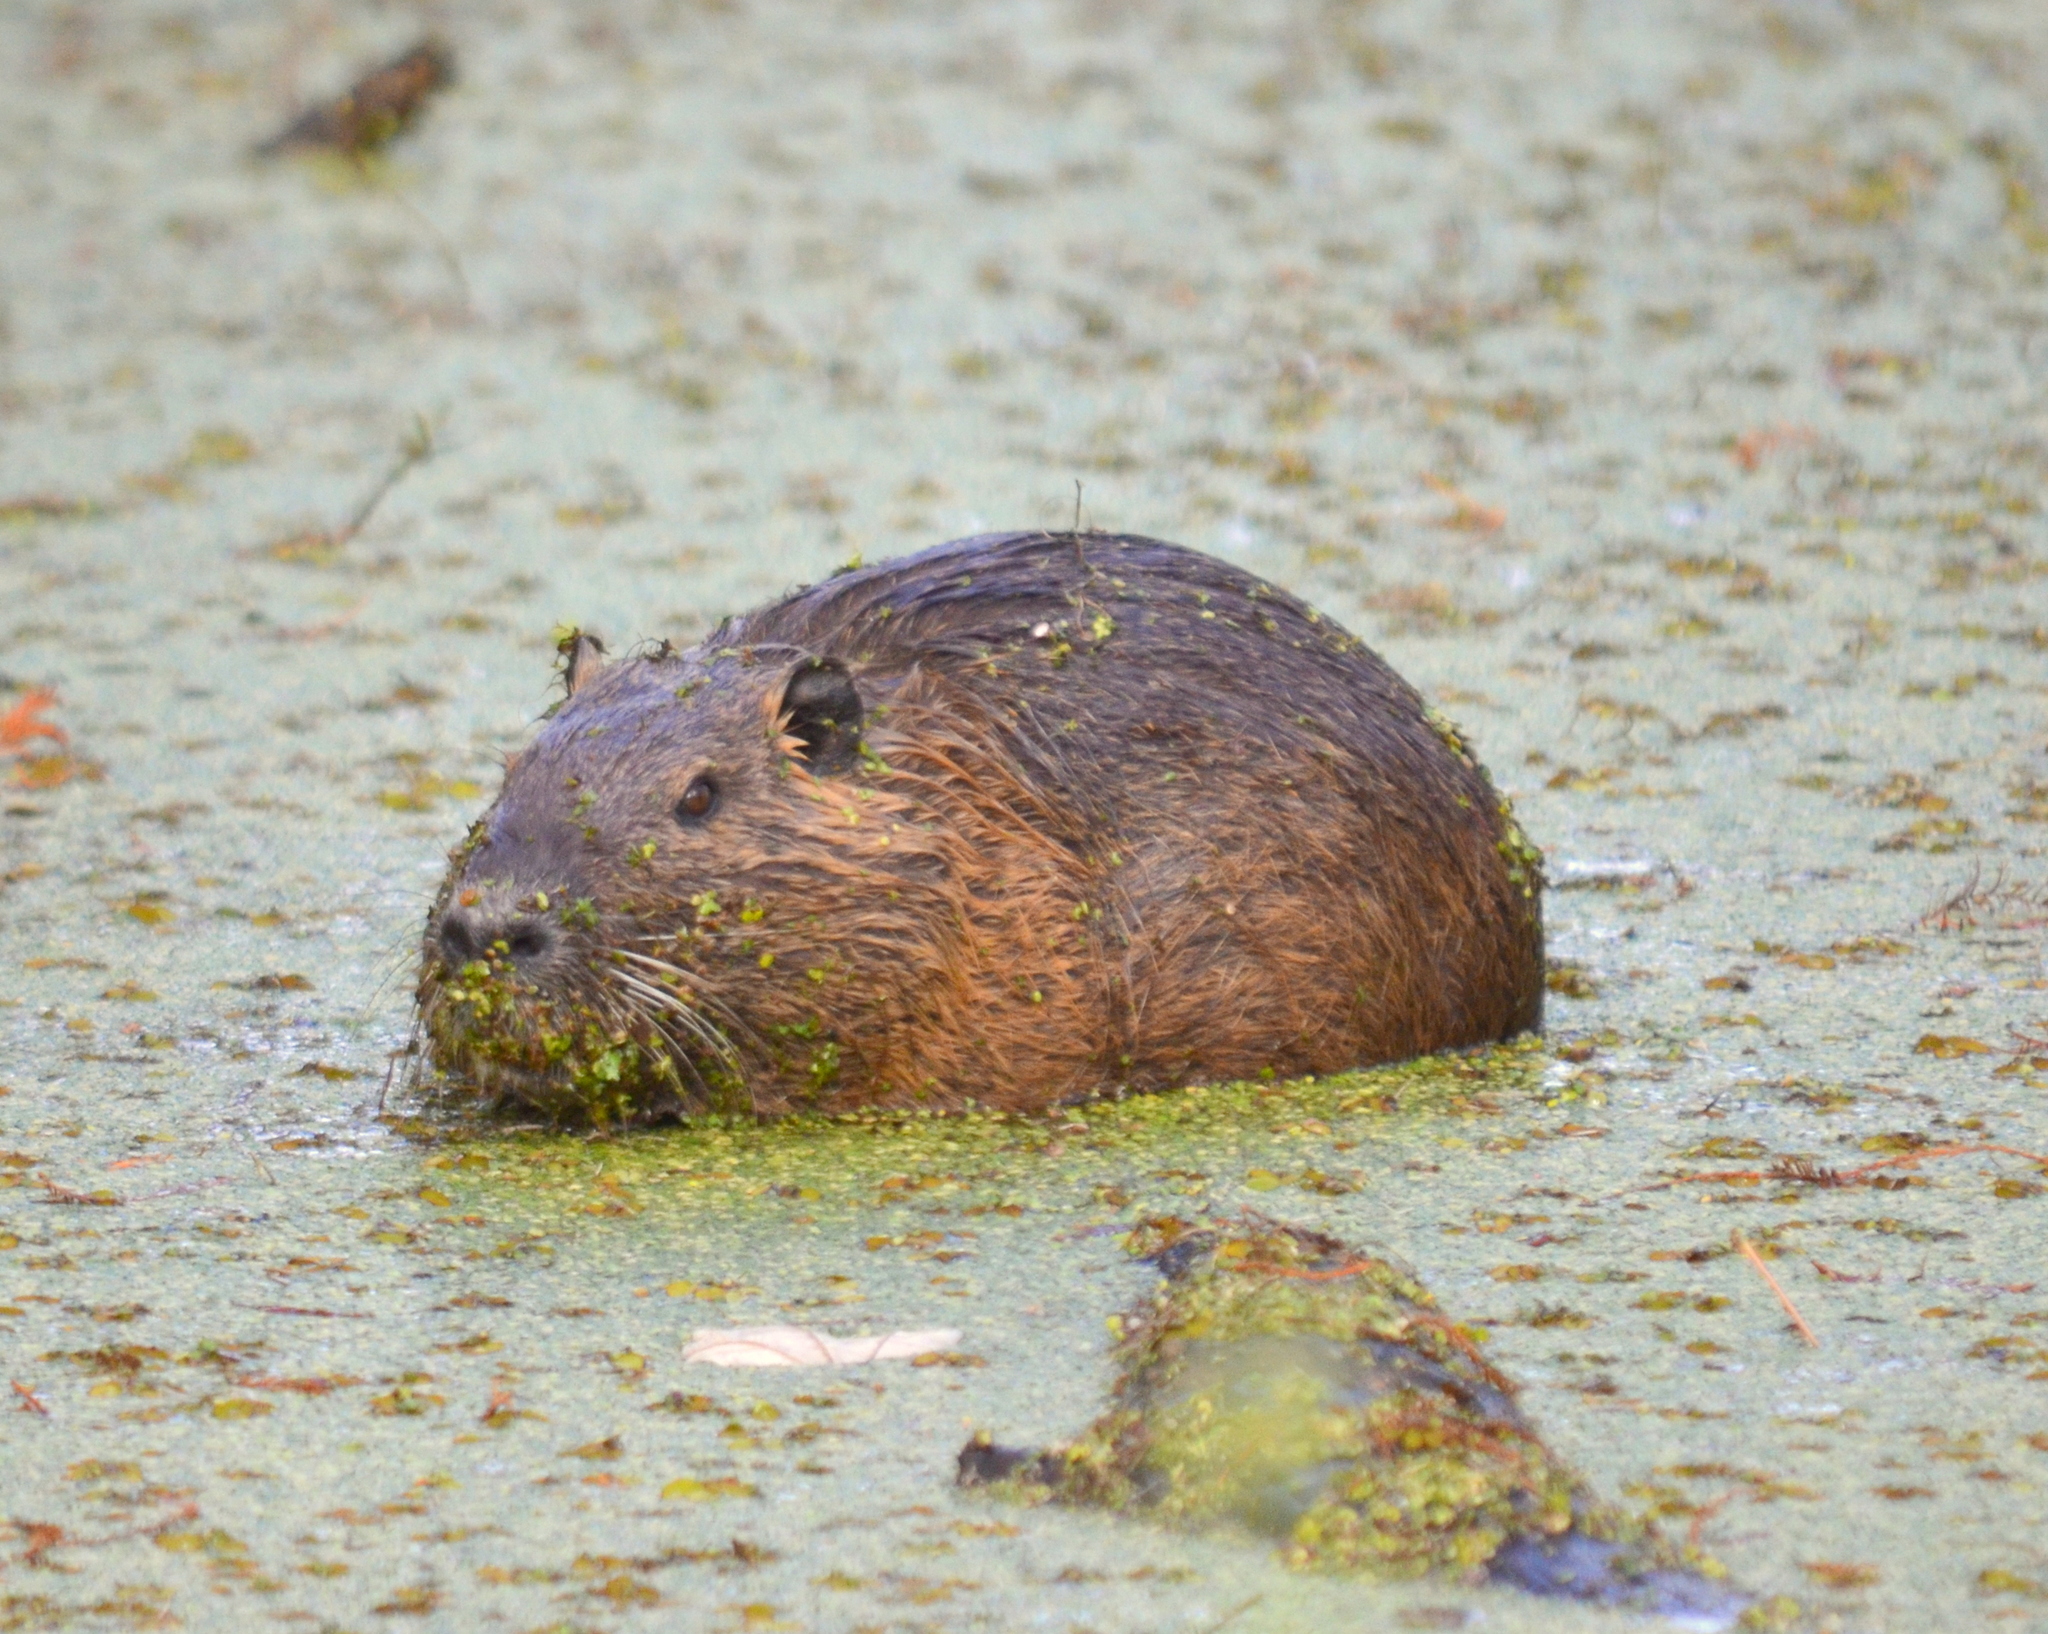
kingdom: Animalia
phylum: Chordata
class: Mammalia
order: Rodentia
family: Myocastoridae
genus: Myocastor
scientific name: Myocastor coypus
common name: Coypu
